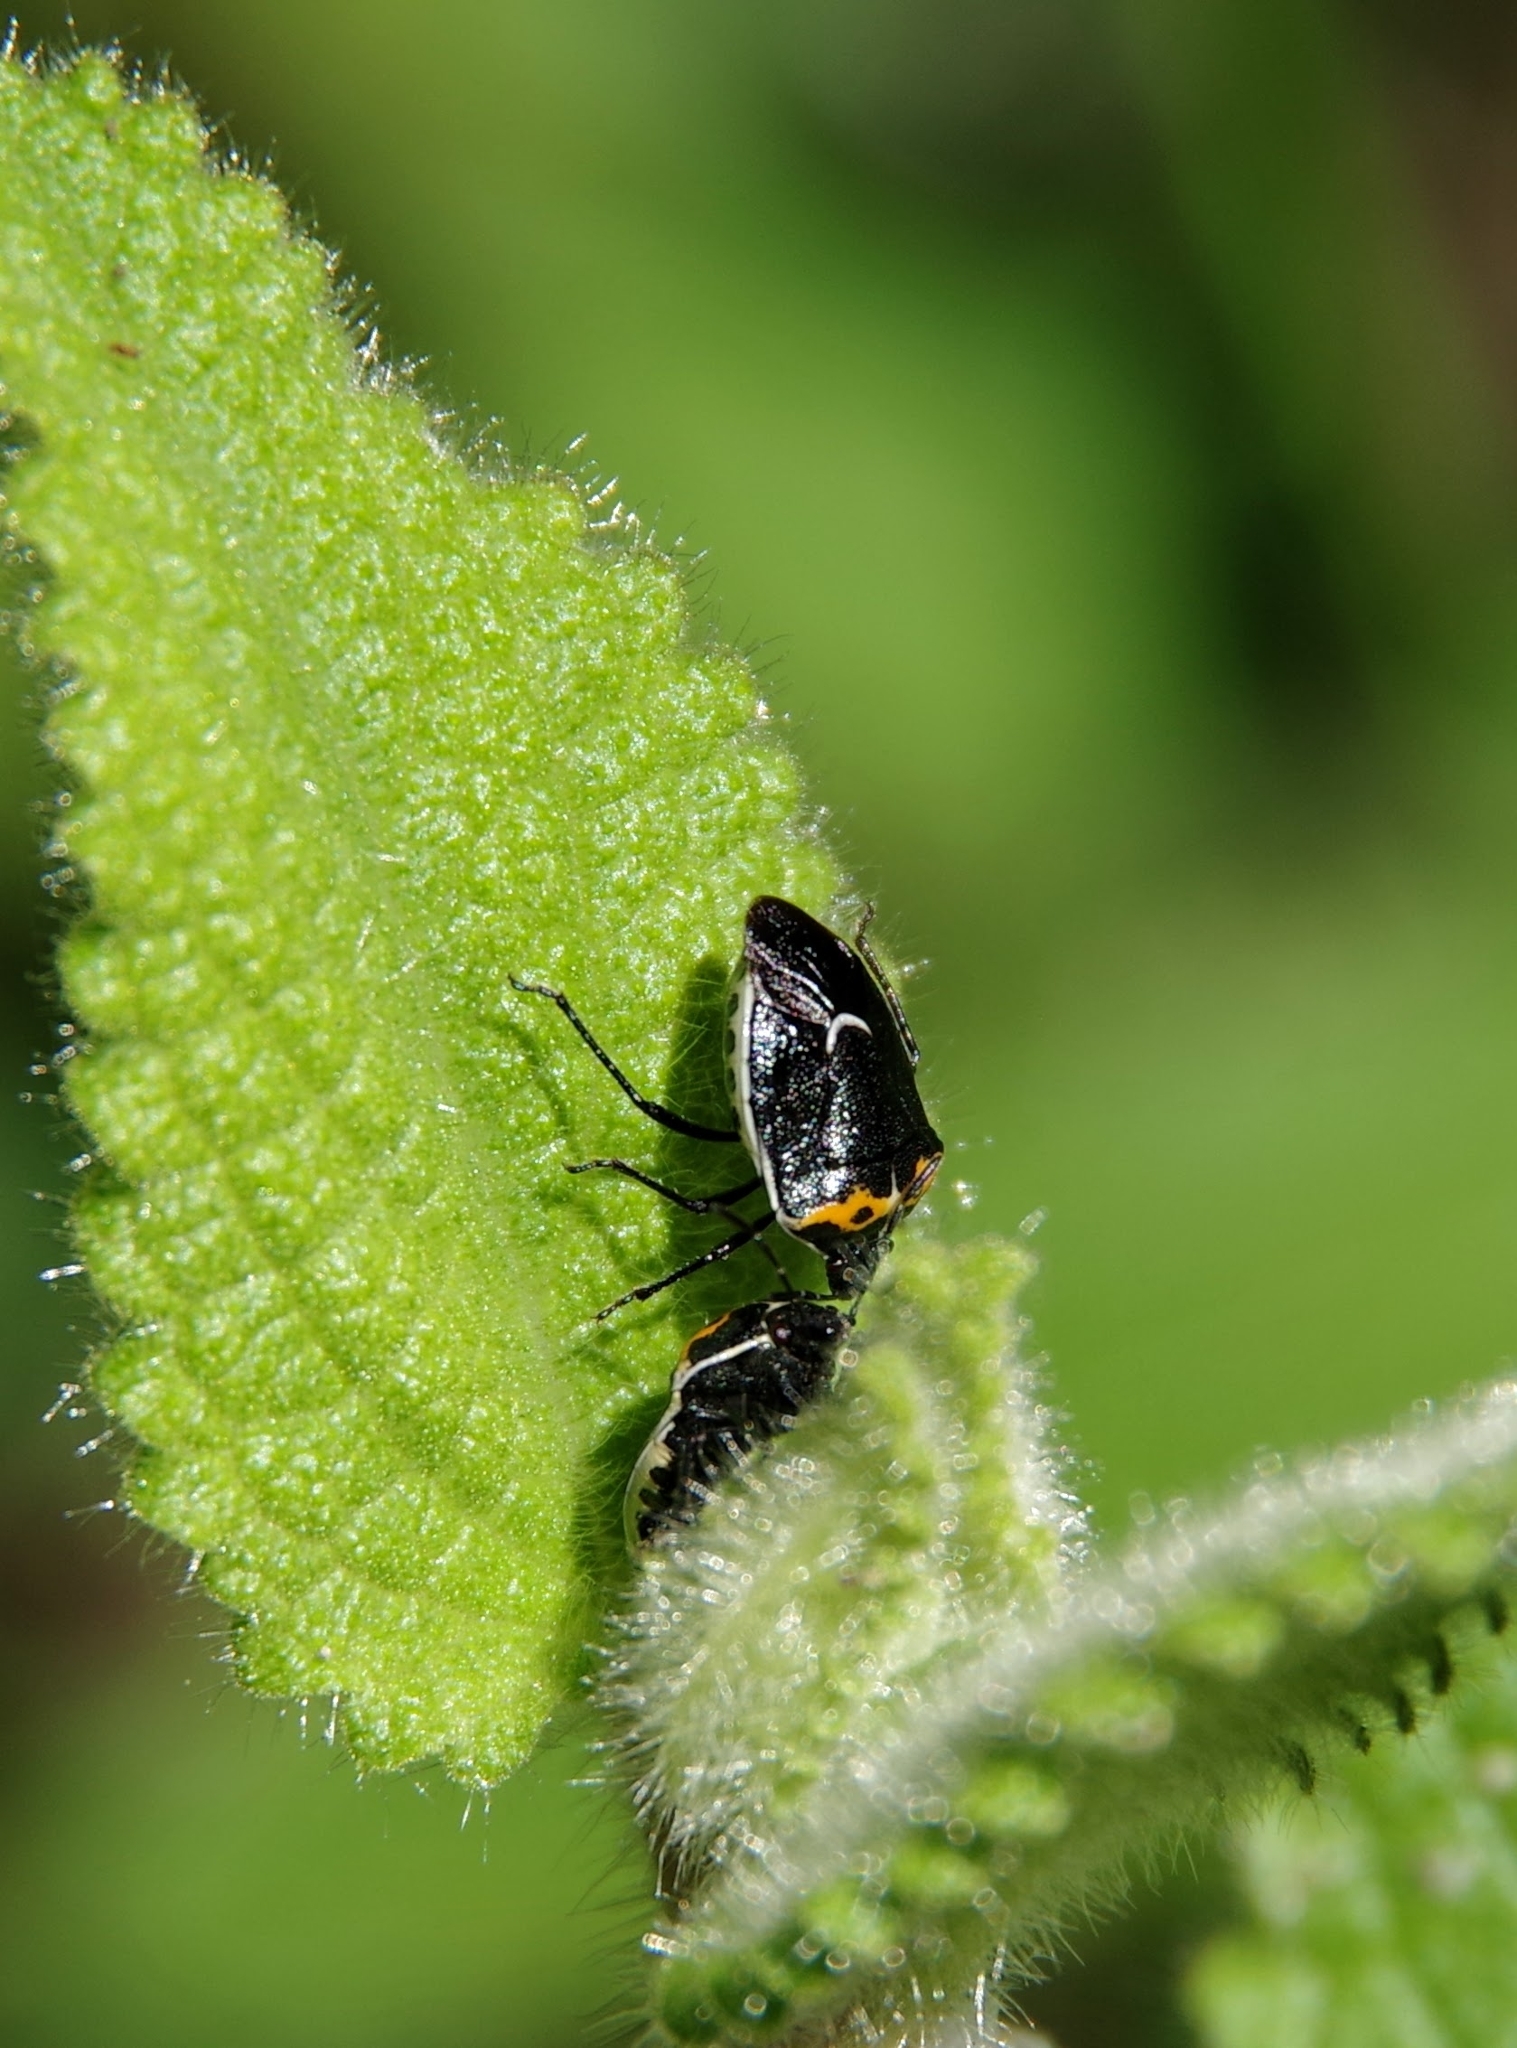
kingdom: Animalia
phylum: Arthropoda
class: Insecta
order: Hemiptera
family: Pentatomidae
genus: Cosmopepla
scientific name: Cosmopepla conspicillaris
